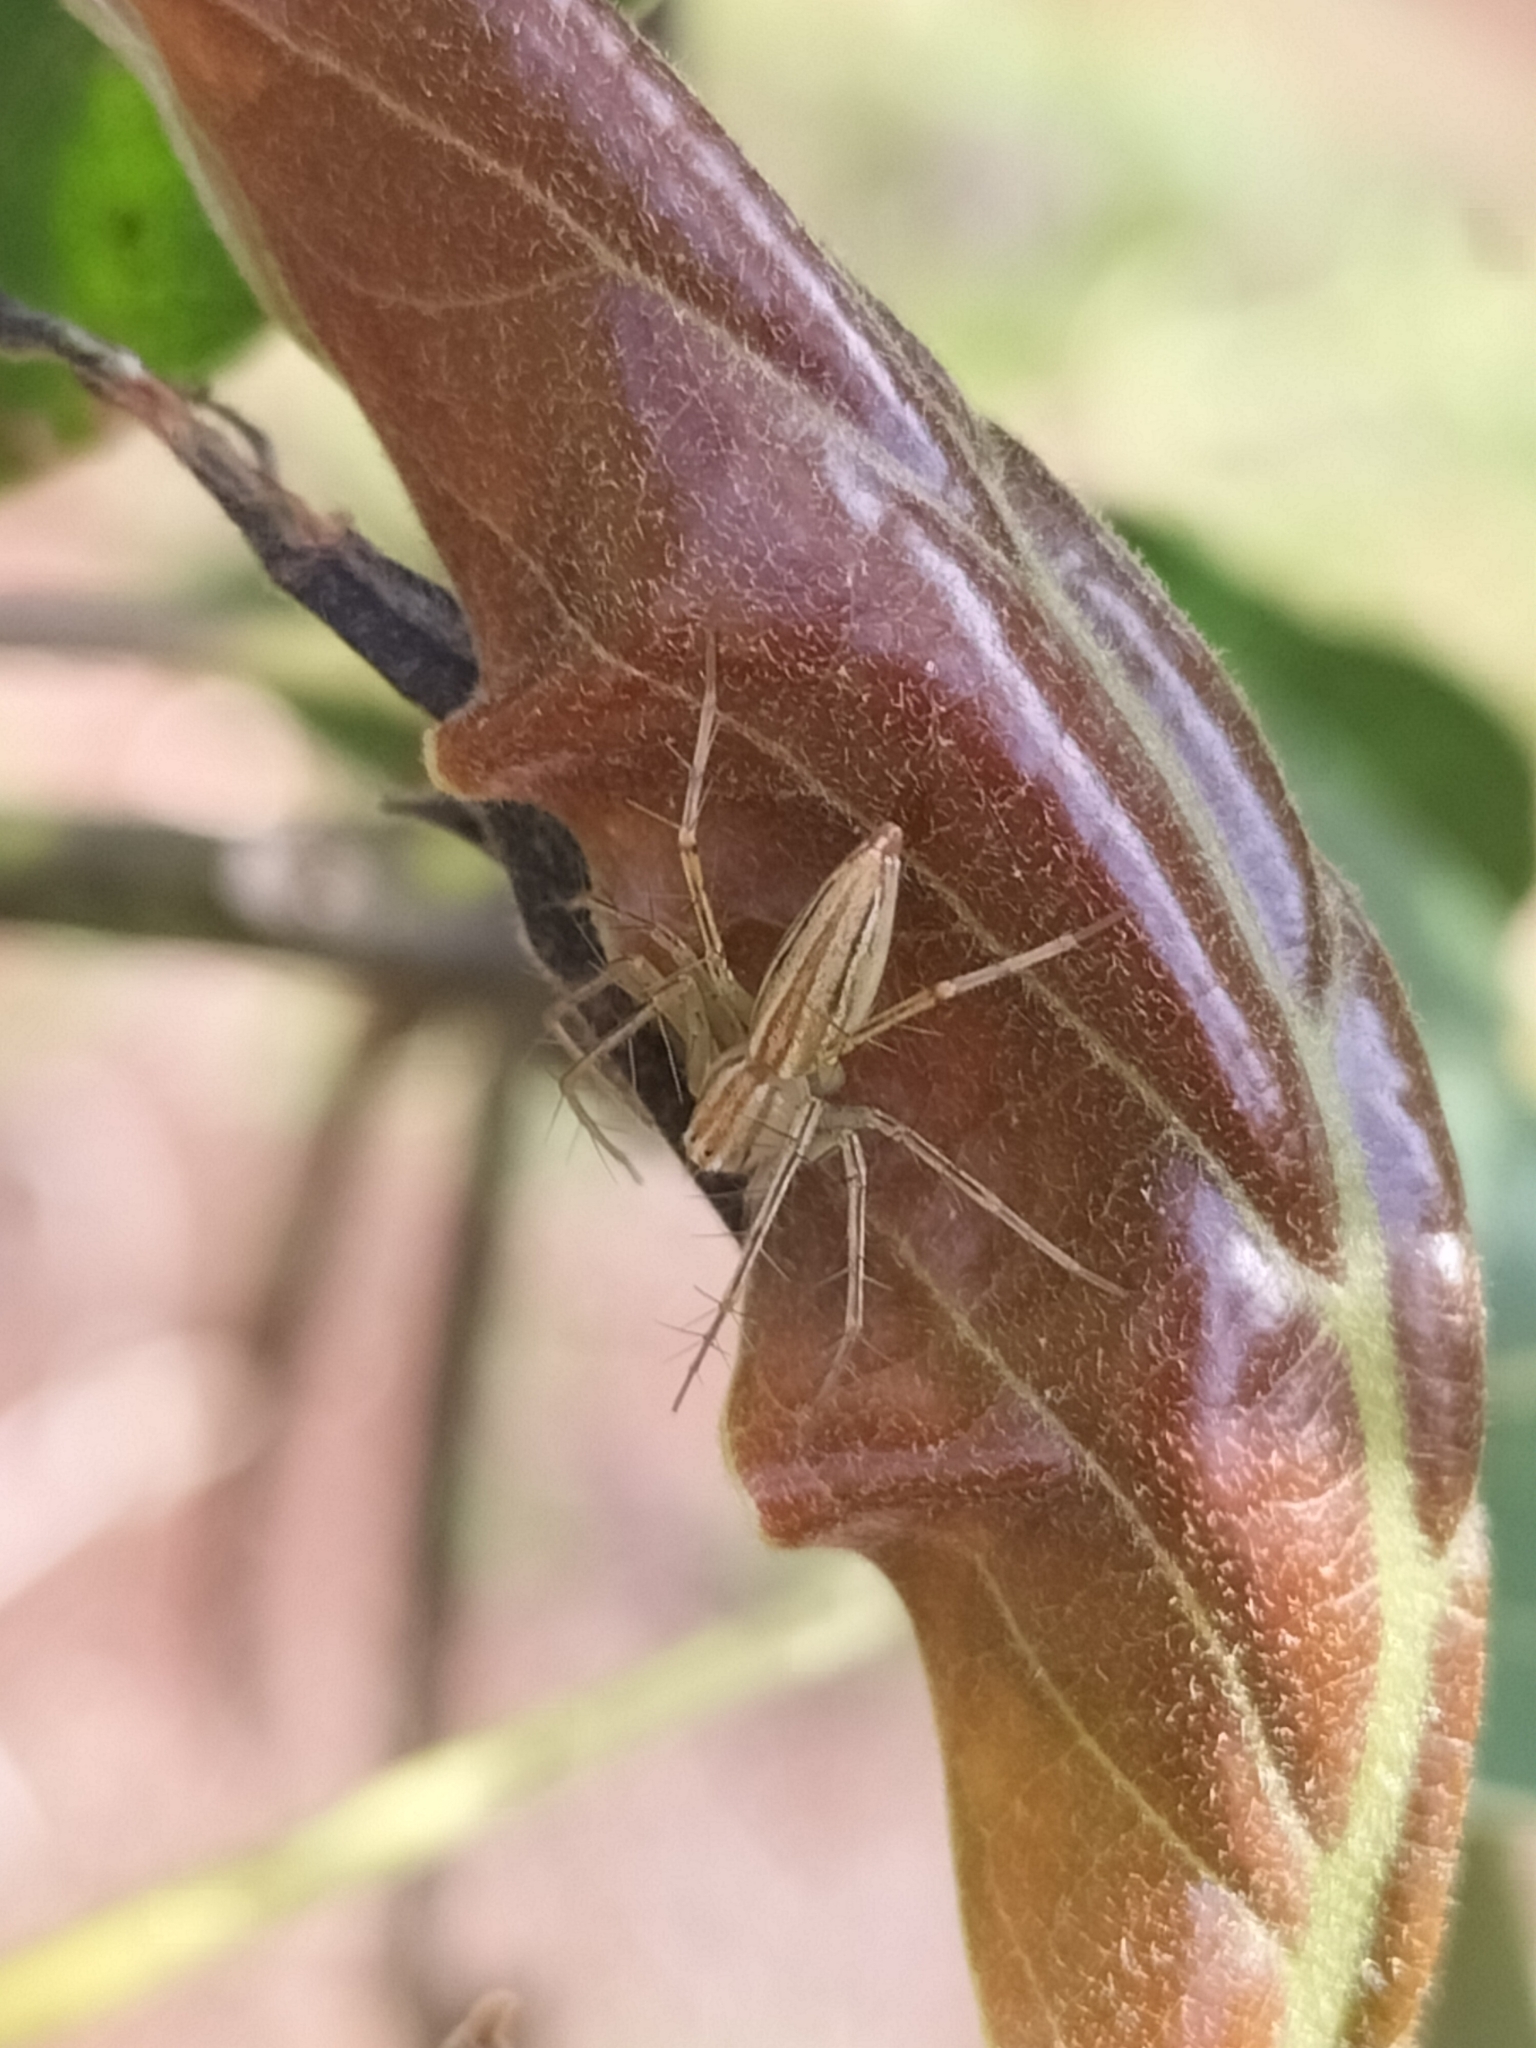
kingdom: Animalia
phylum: Arthropoda
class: Arachnida
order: Araneae
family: Oxyopidae
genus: Oxyopes
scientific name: Oxyopes macilentus
